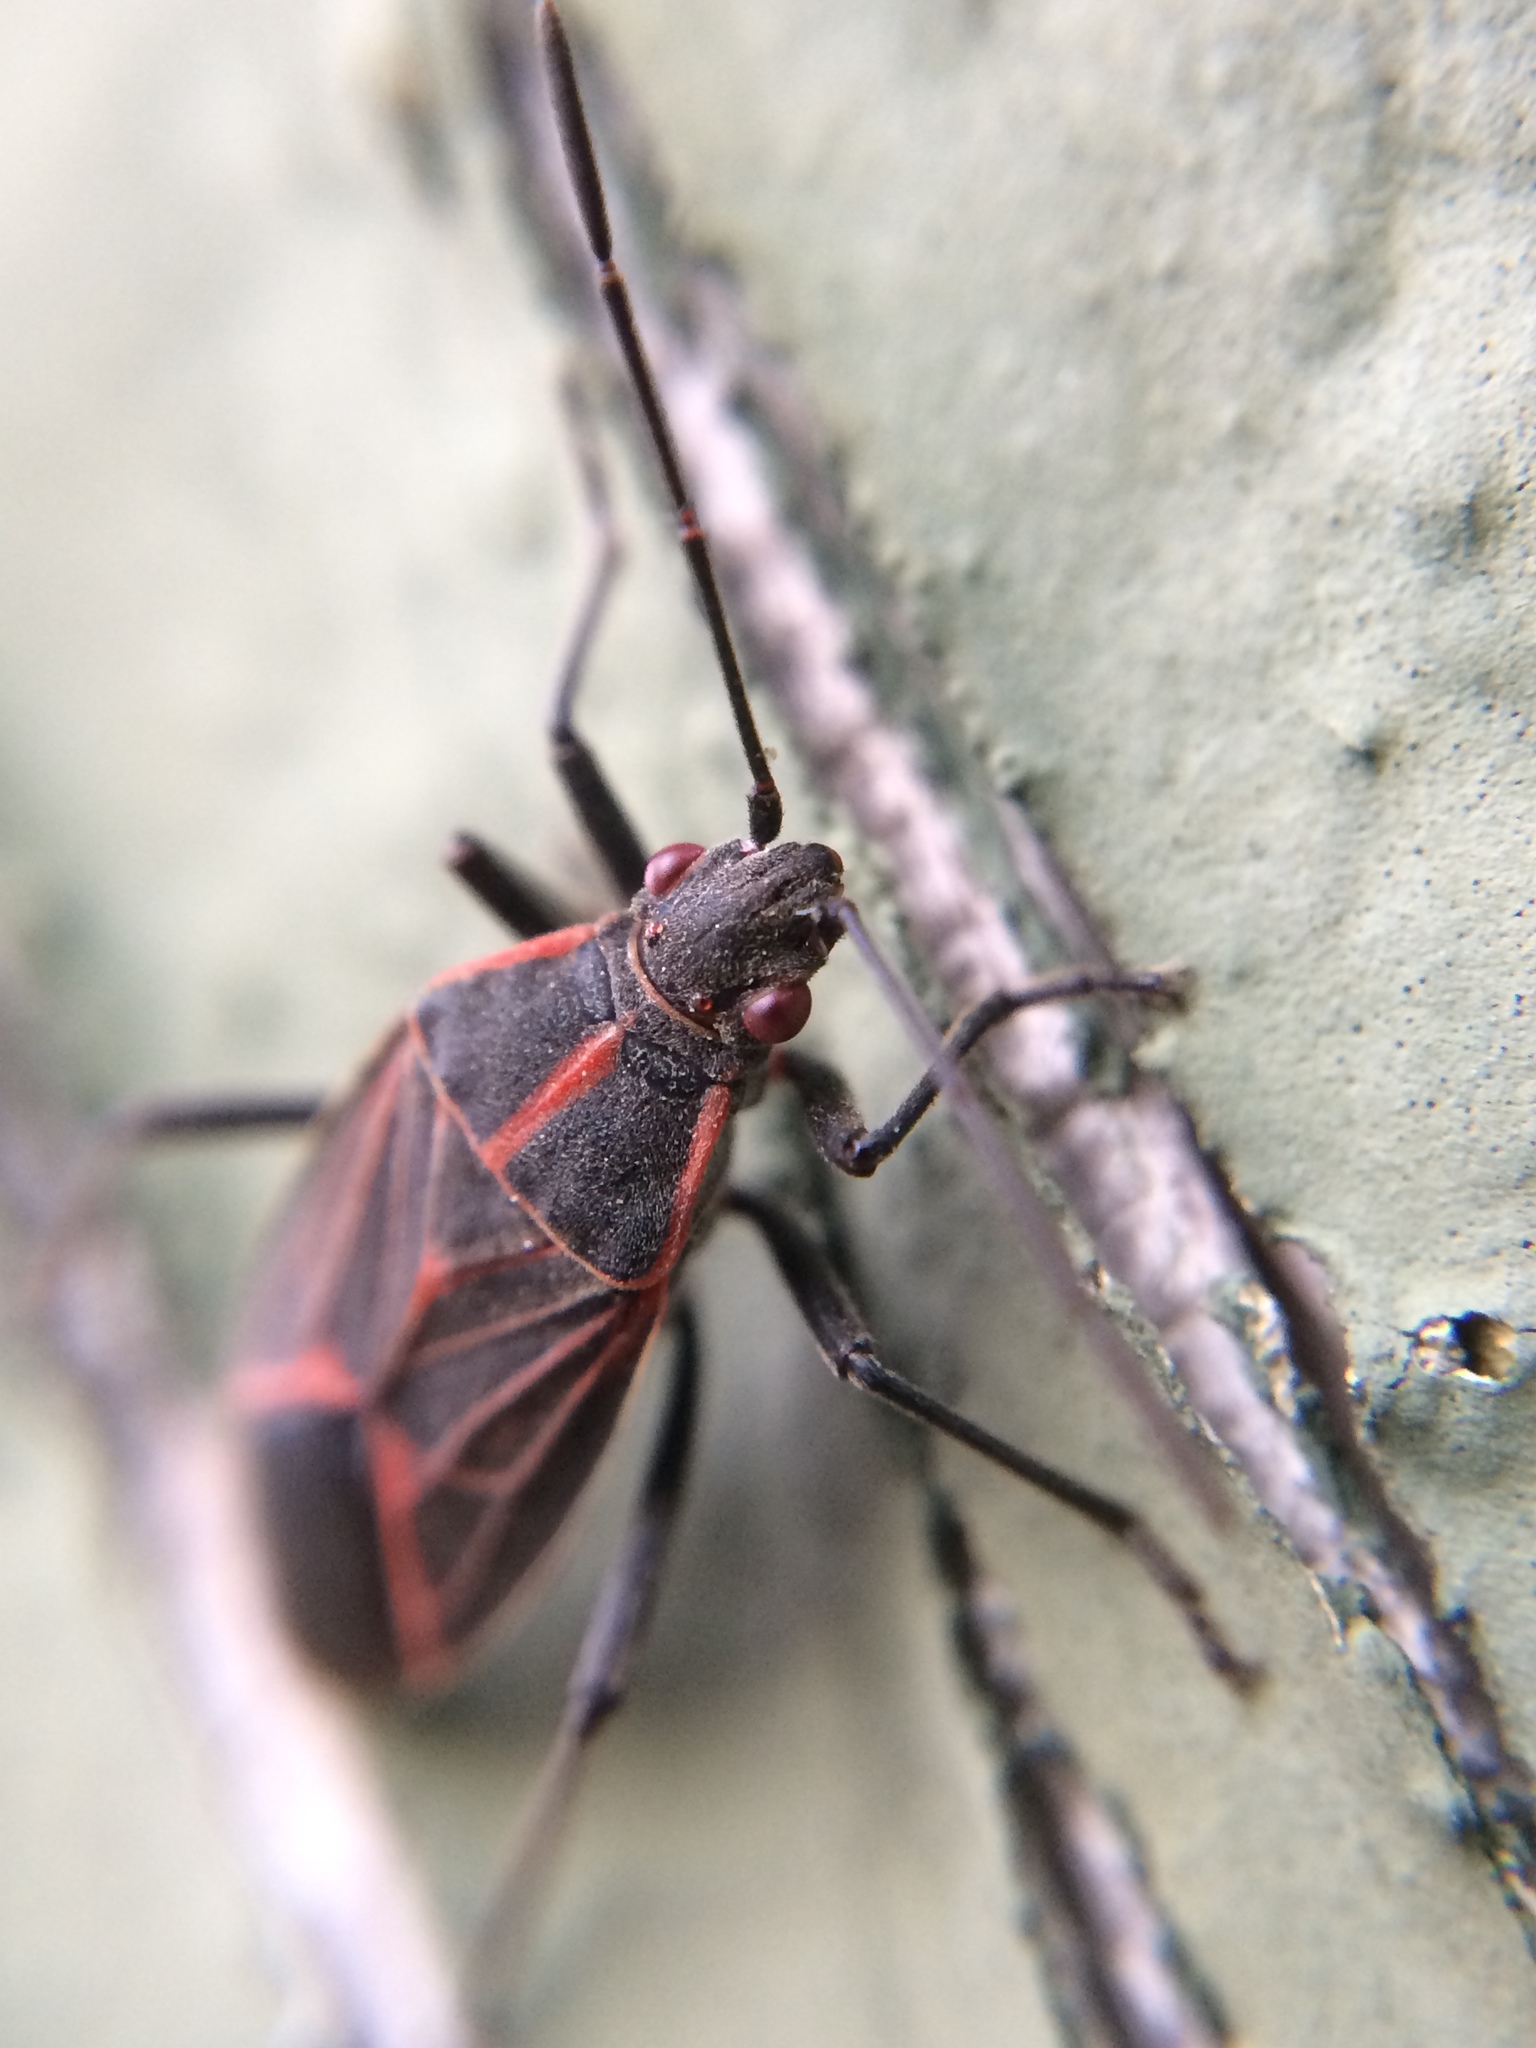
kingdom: Animalia
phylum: Arthropoda
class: Insecta
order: Hemiptera
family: Rhopalidae
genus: Boisea
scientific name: Boisea rubrolineata
